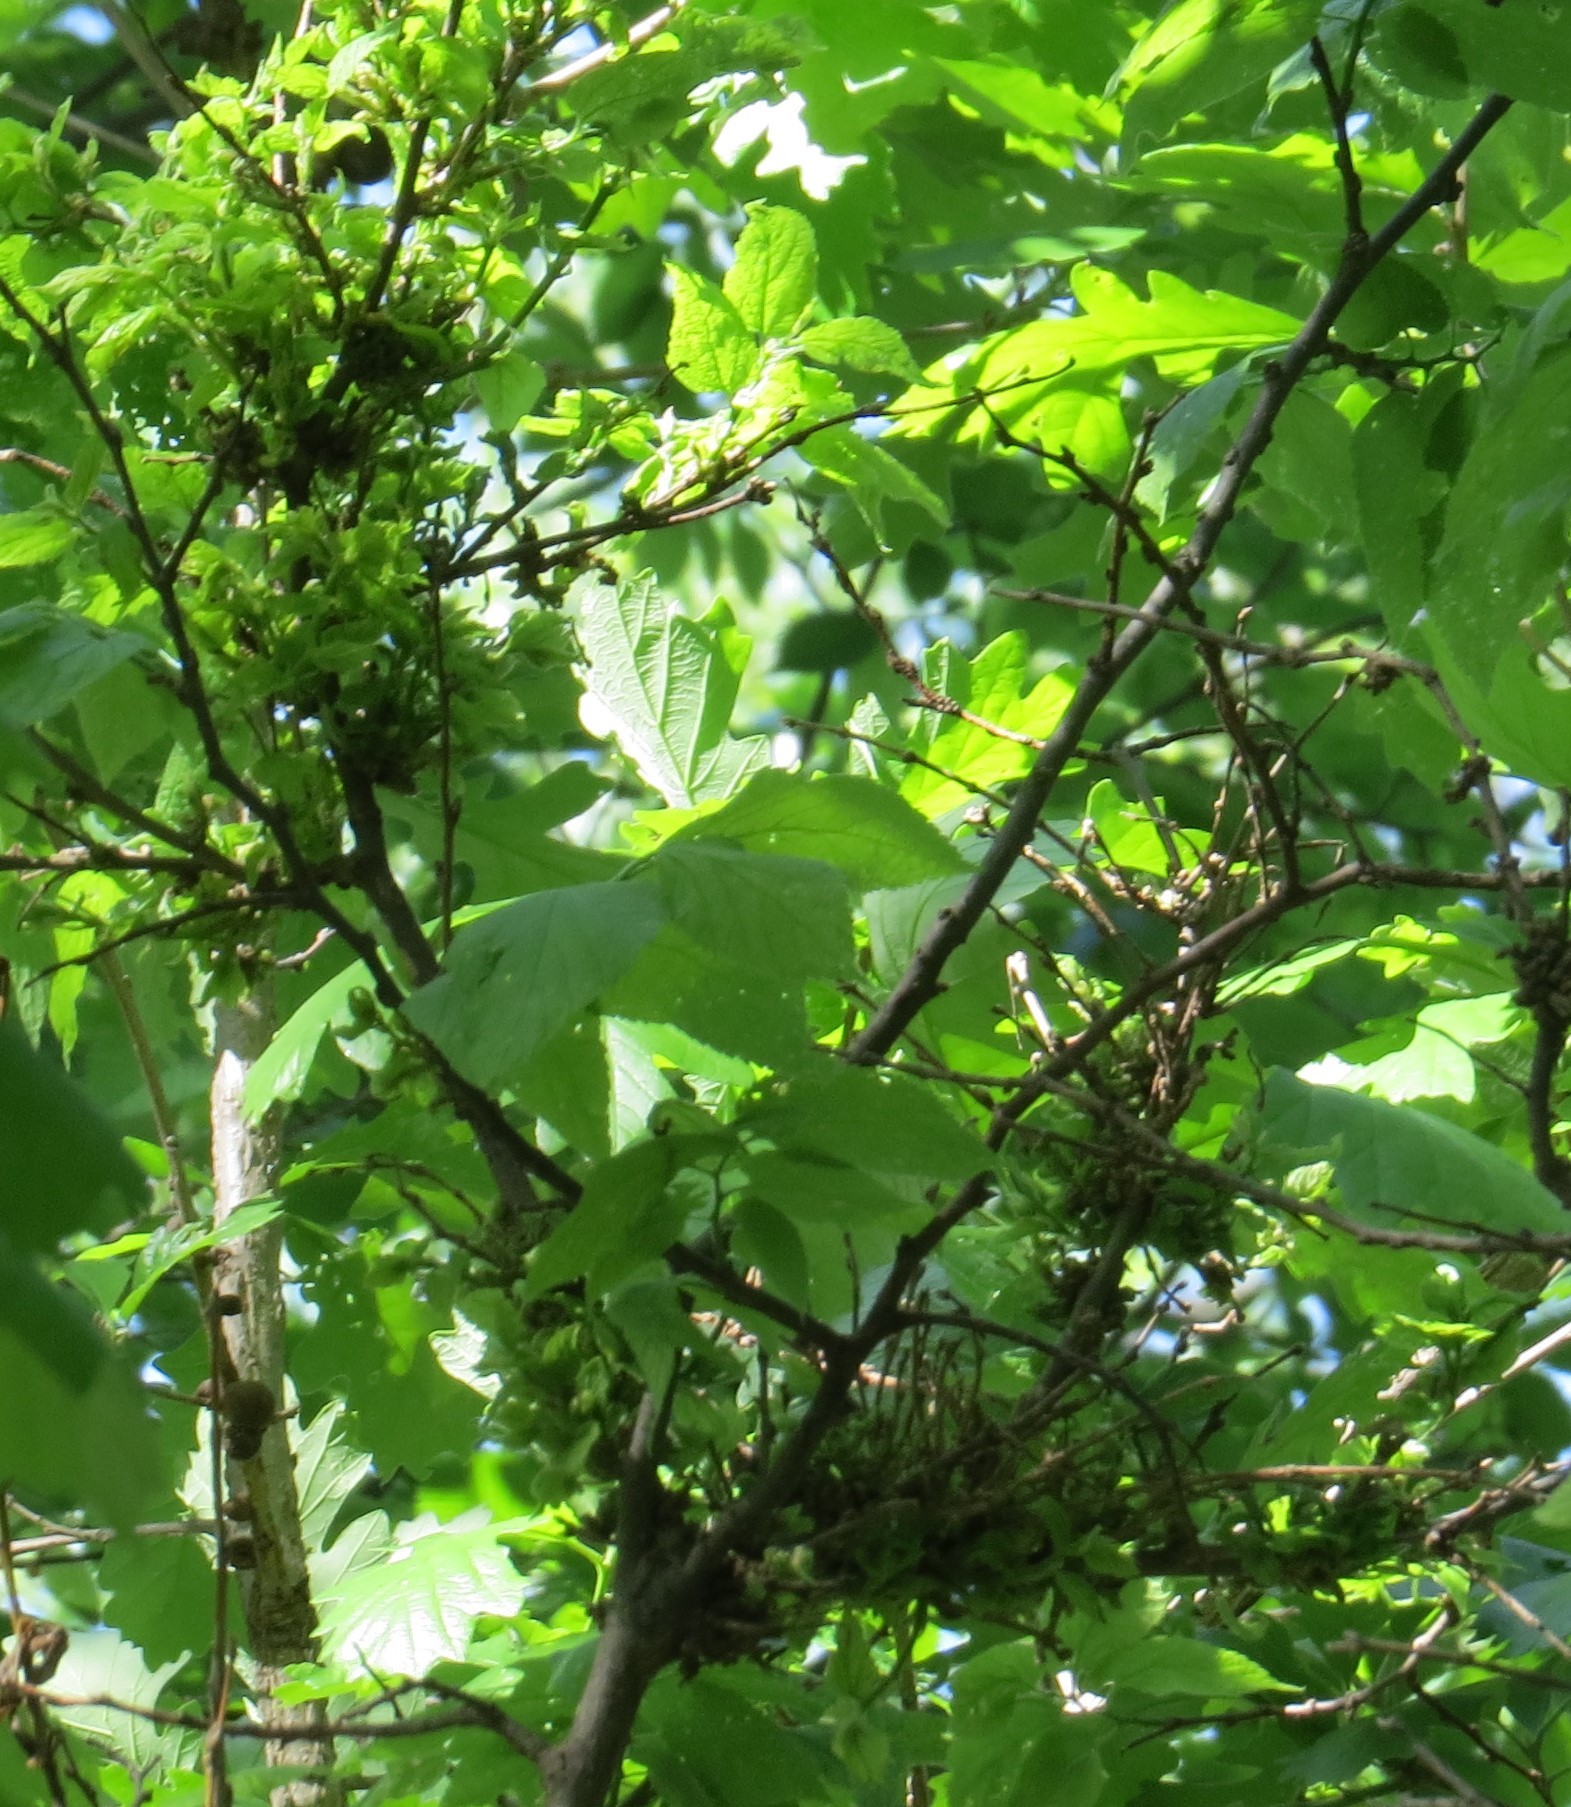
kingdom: Animalia
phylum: Arthropoda
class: Arachnida
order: Trombidiformes
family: Eriophyidae
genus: Aceria
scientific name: Aceria
